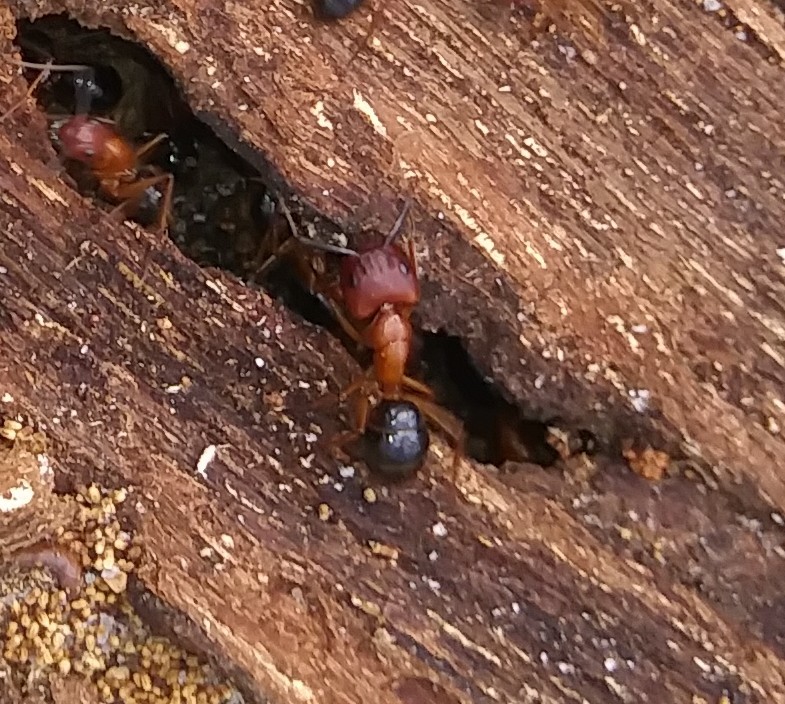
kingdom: Animalia
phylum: Arthropoda
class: Insecta
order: Hymenoptera
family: Formicidae
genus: Camponotus
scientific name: Camponotus floridanus
